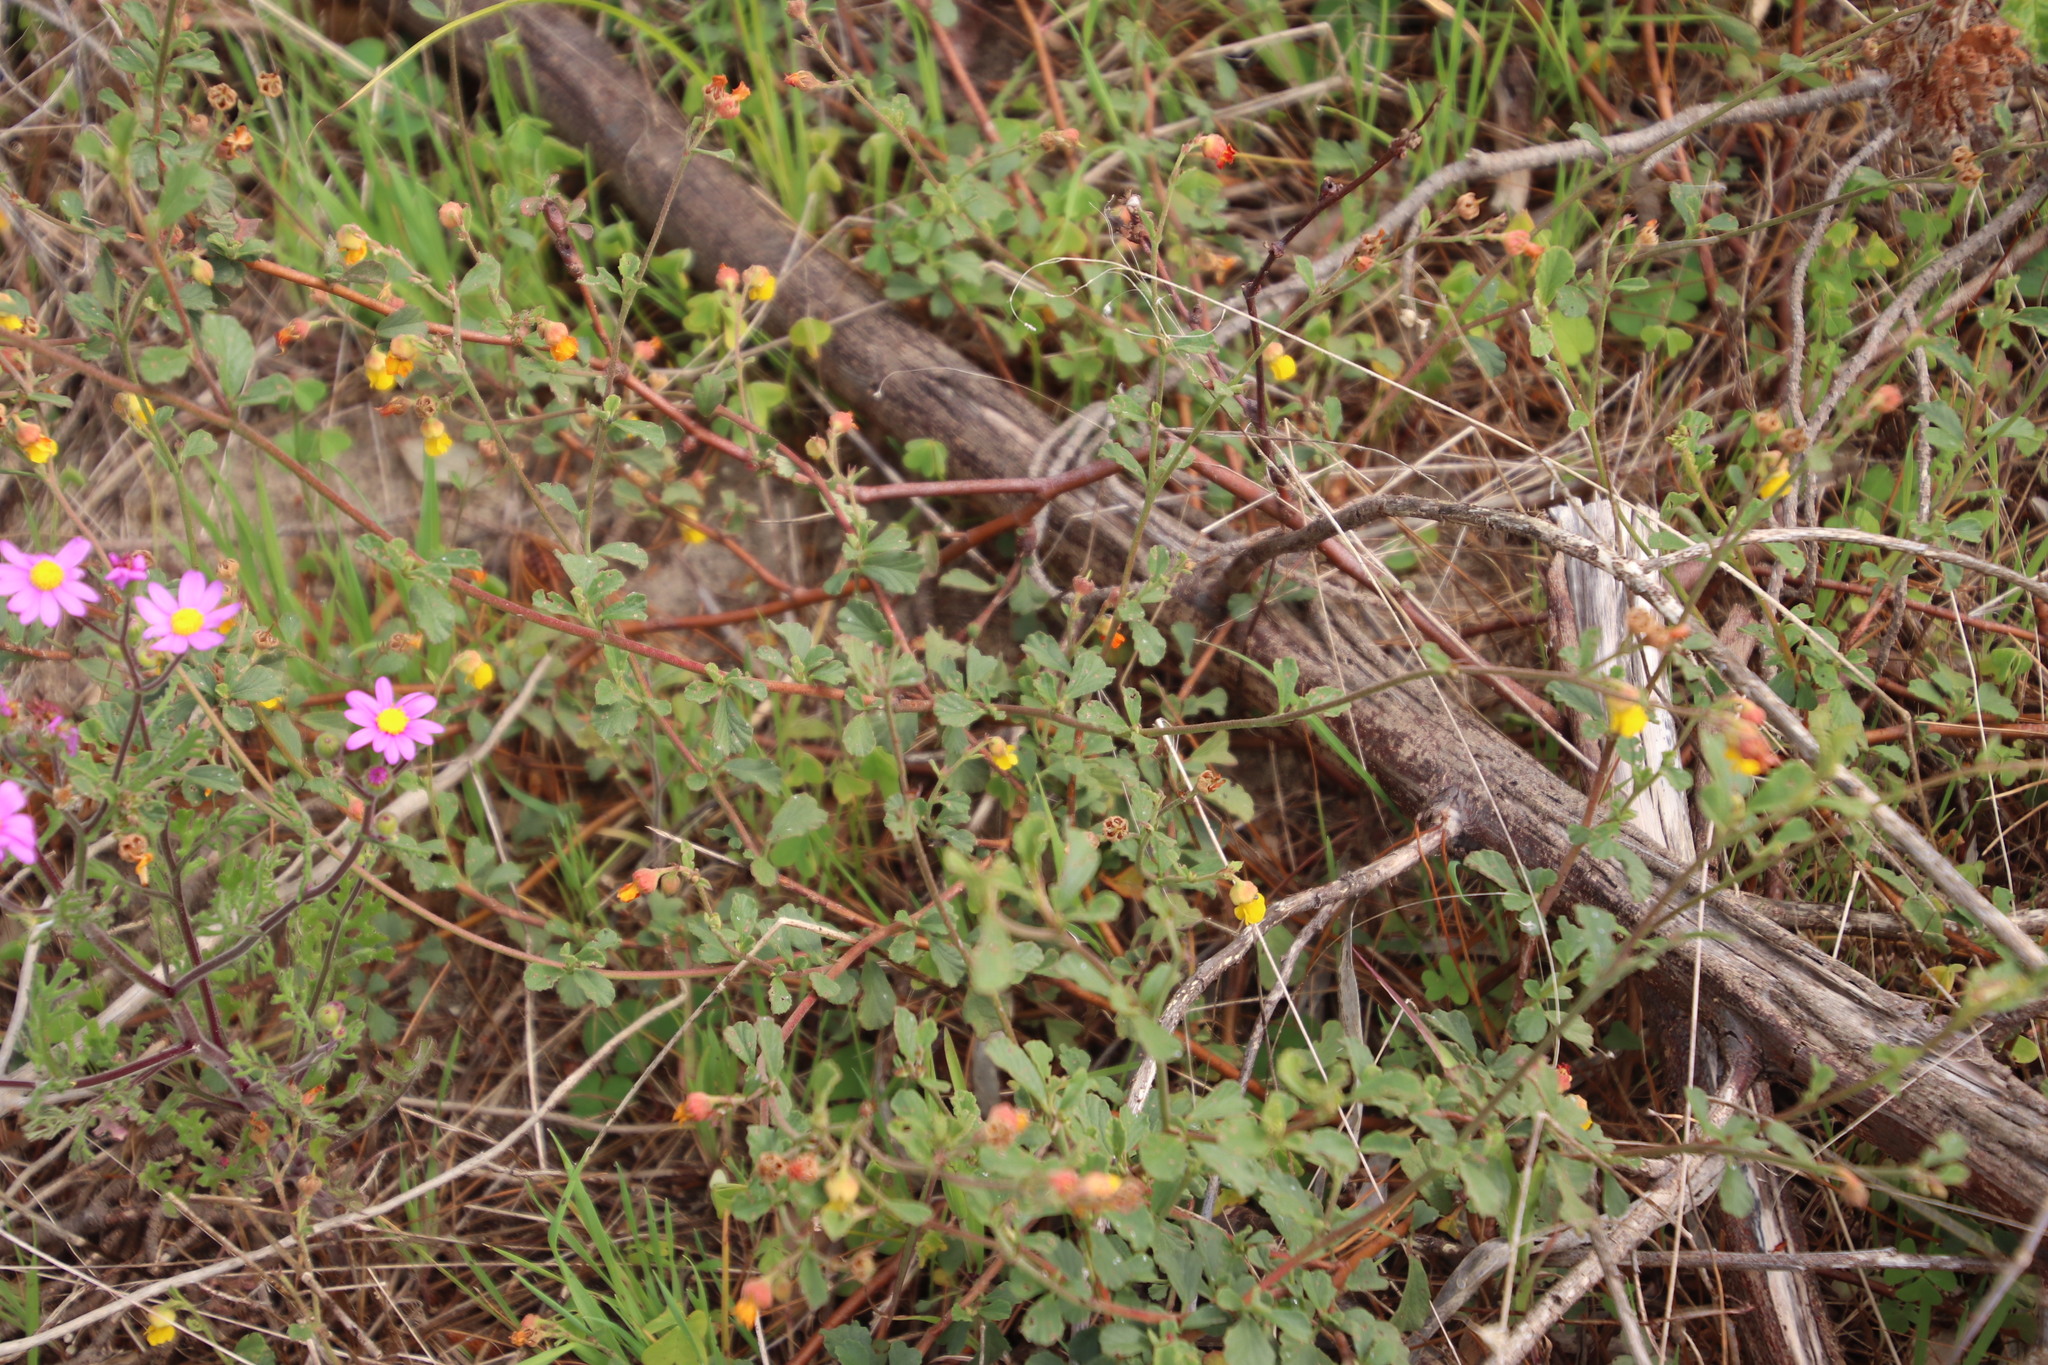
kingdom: Plantae
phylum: Tracheophyta
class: Magnoliopsida
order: Malvales
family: Malvaceae
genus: Hermannia
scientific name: Hermannia multiflora
